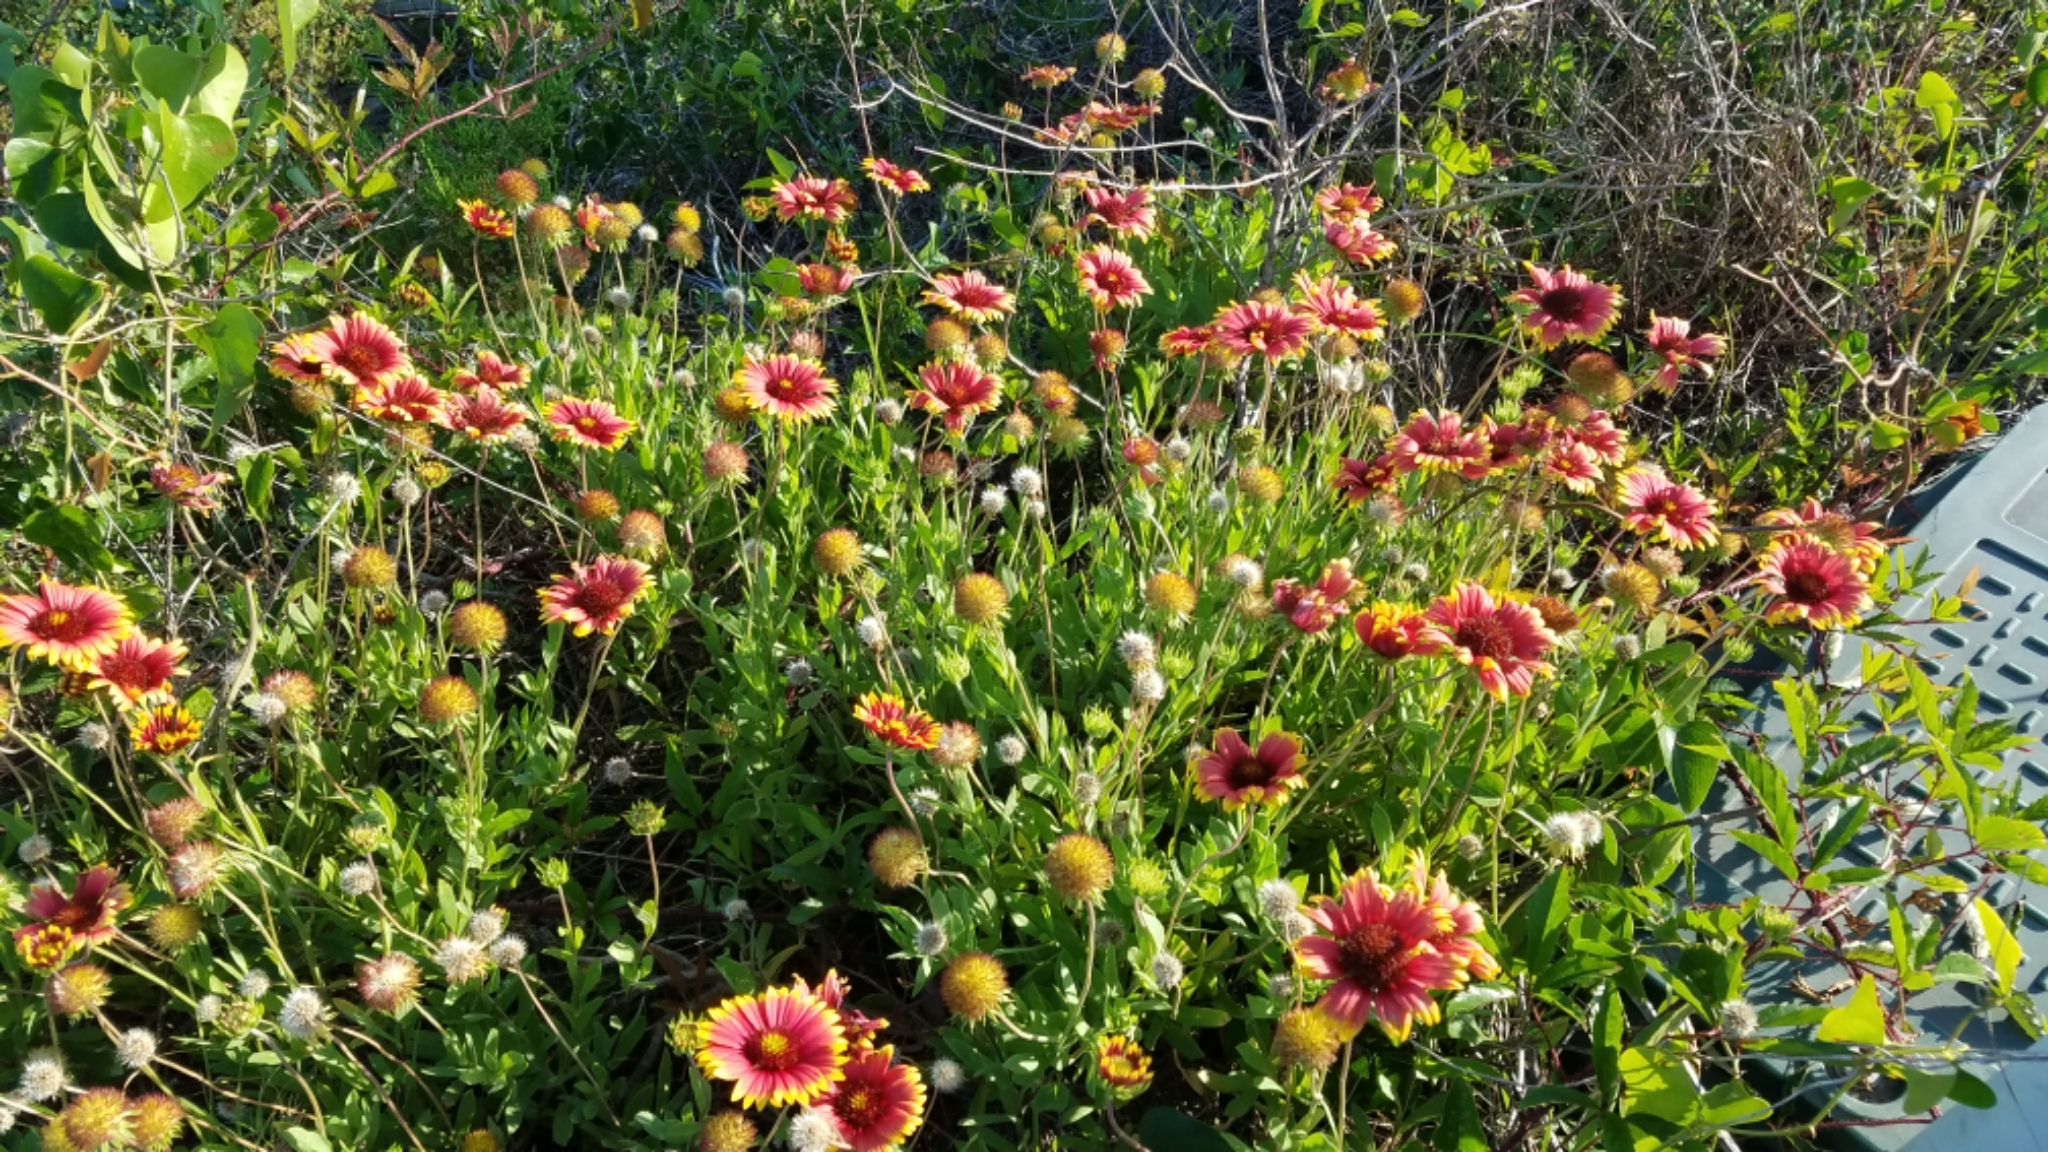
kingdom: Plantae
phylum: Tracheophyta
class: Magnoliopsida
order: Asterales
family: Asteraceae
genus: Gaillardia
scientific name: Gaillardia pulchella
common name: Firewheel
